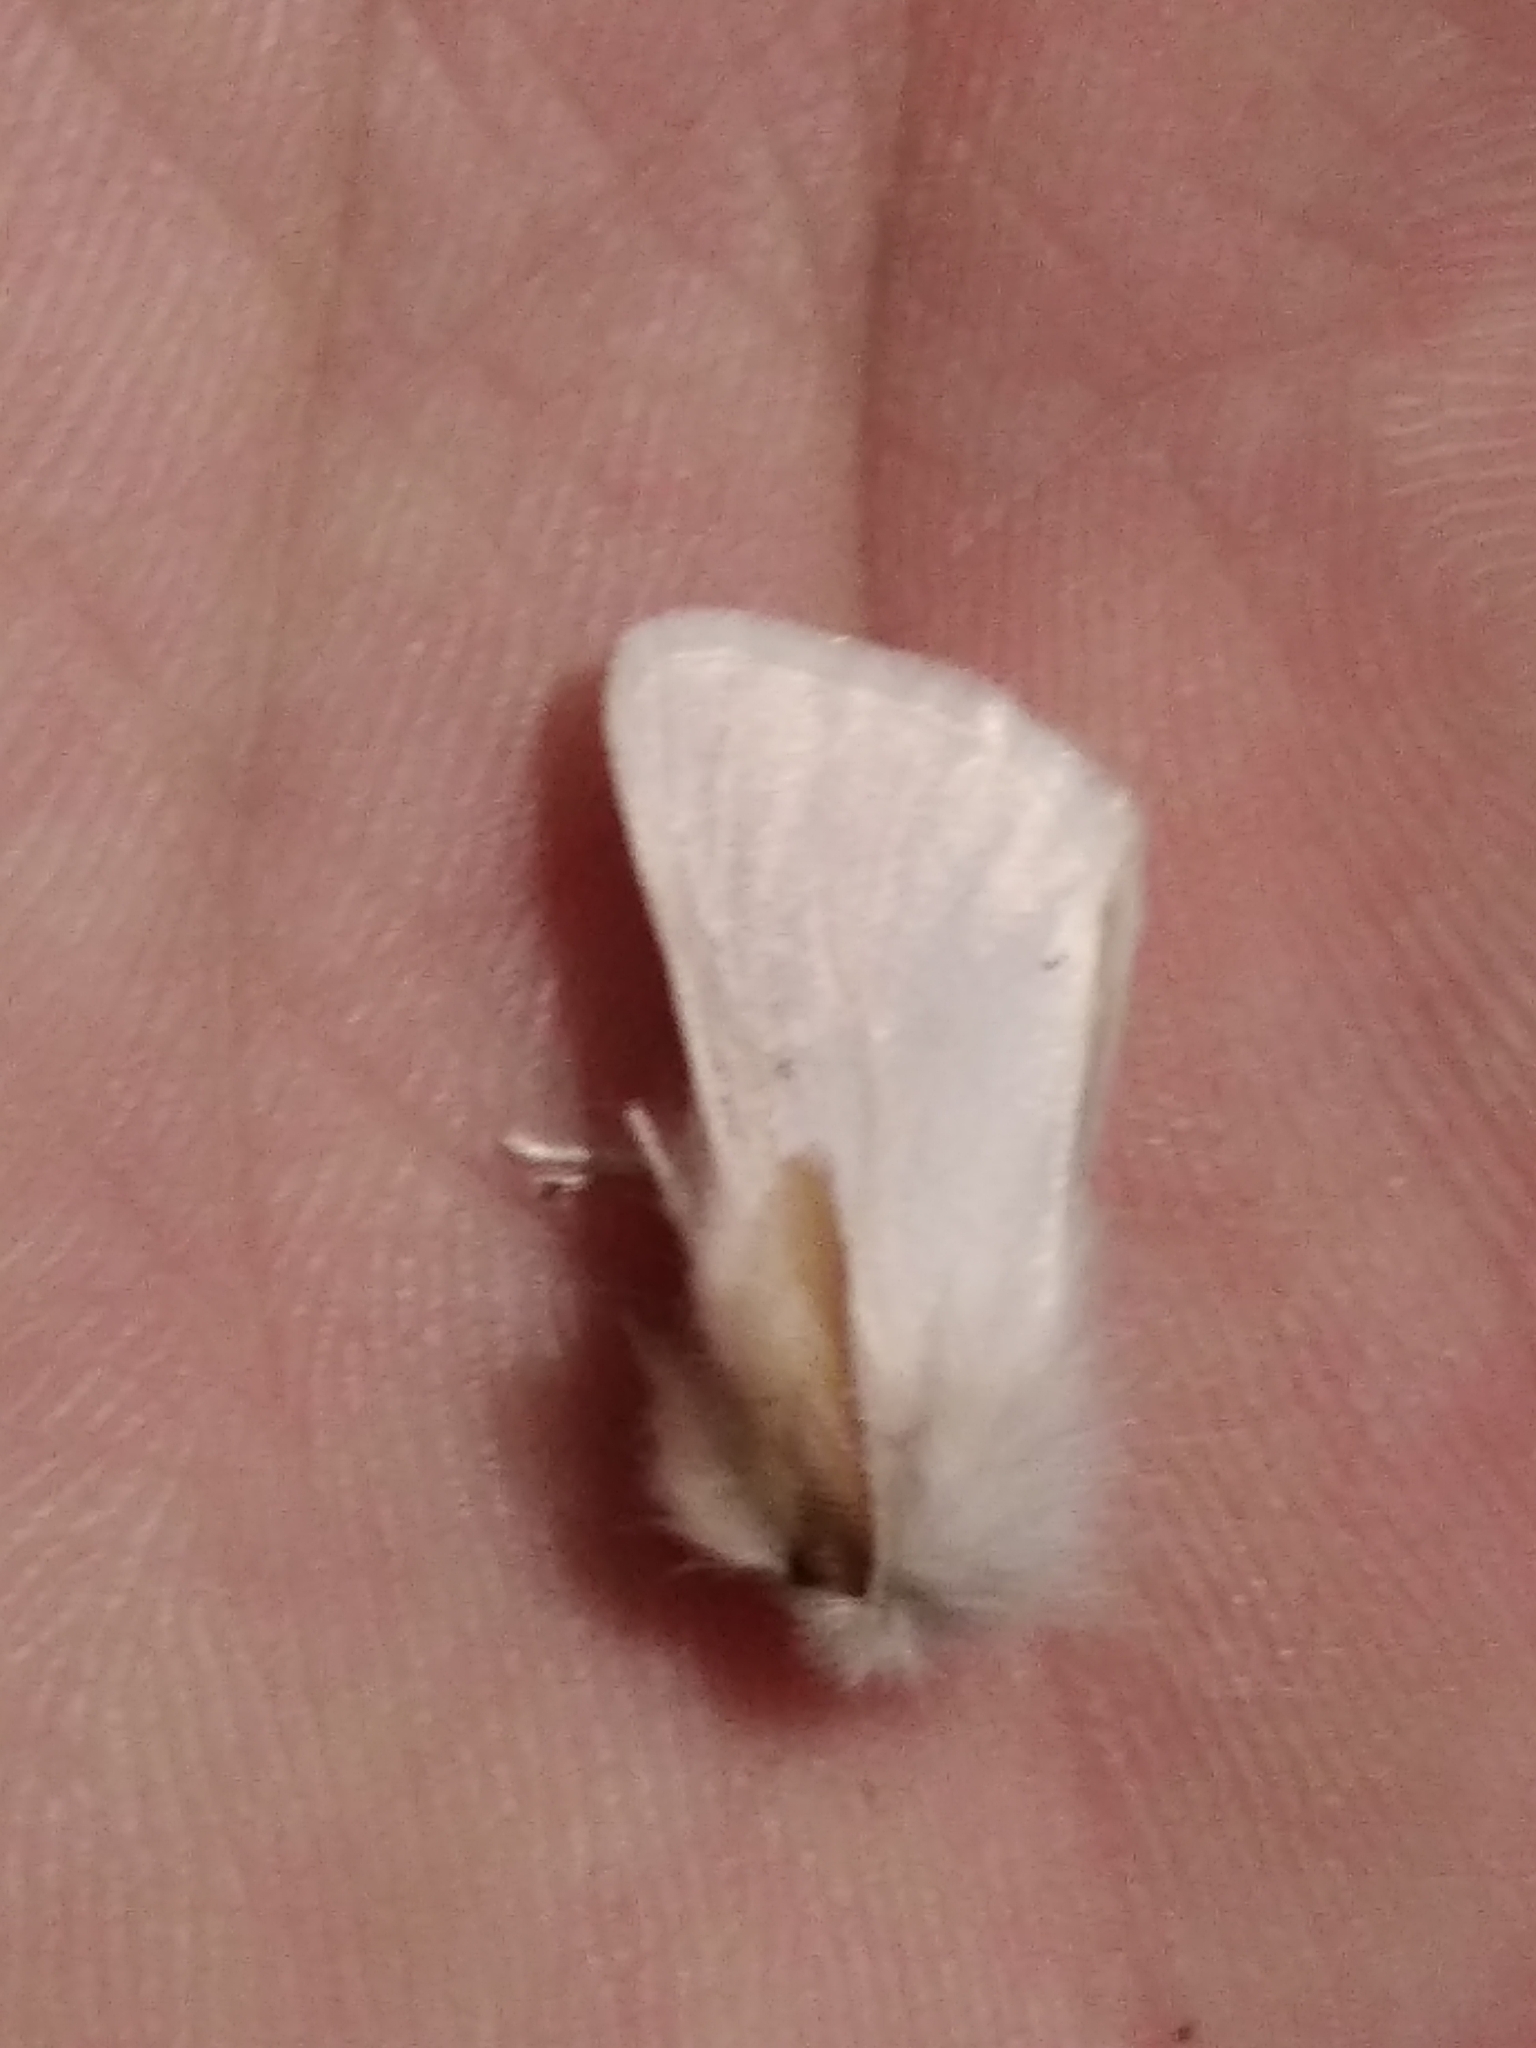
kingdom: Animalia
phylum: Arthropoda
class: Insecta
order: Lepidoptera
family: Erebidae
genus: Euproctis
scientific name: Euproctis chrysorrhoea
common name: Brown-tail
